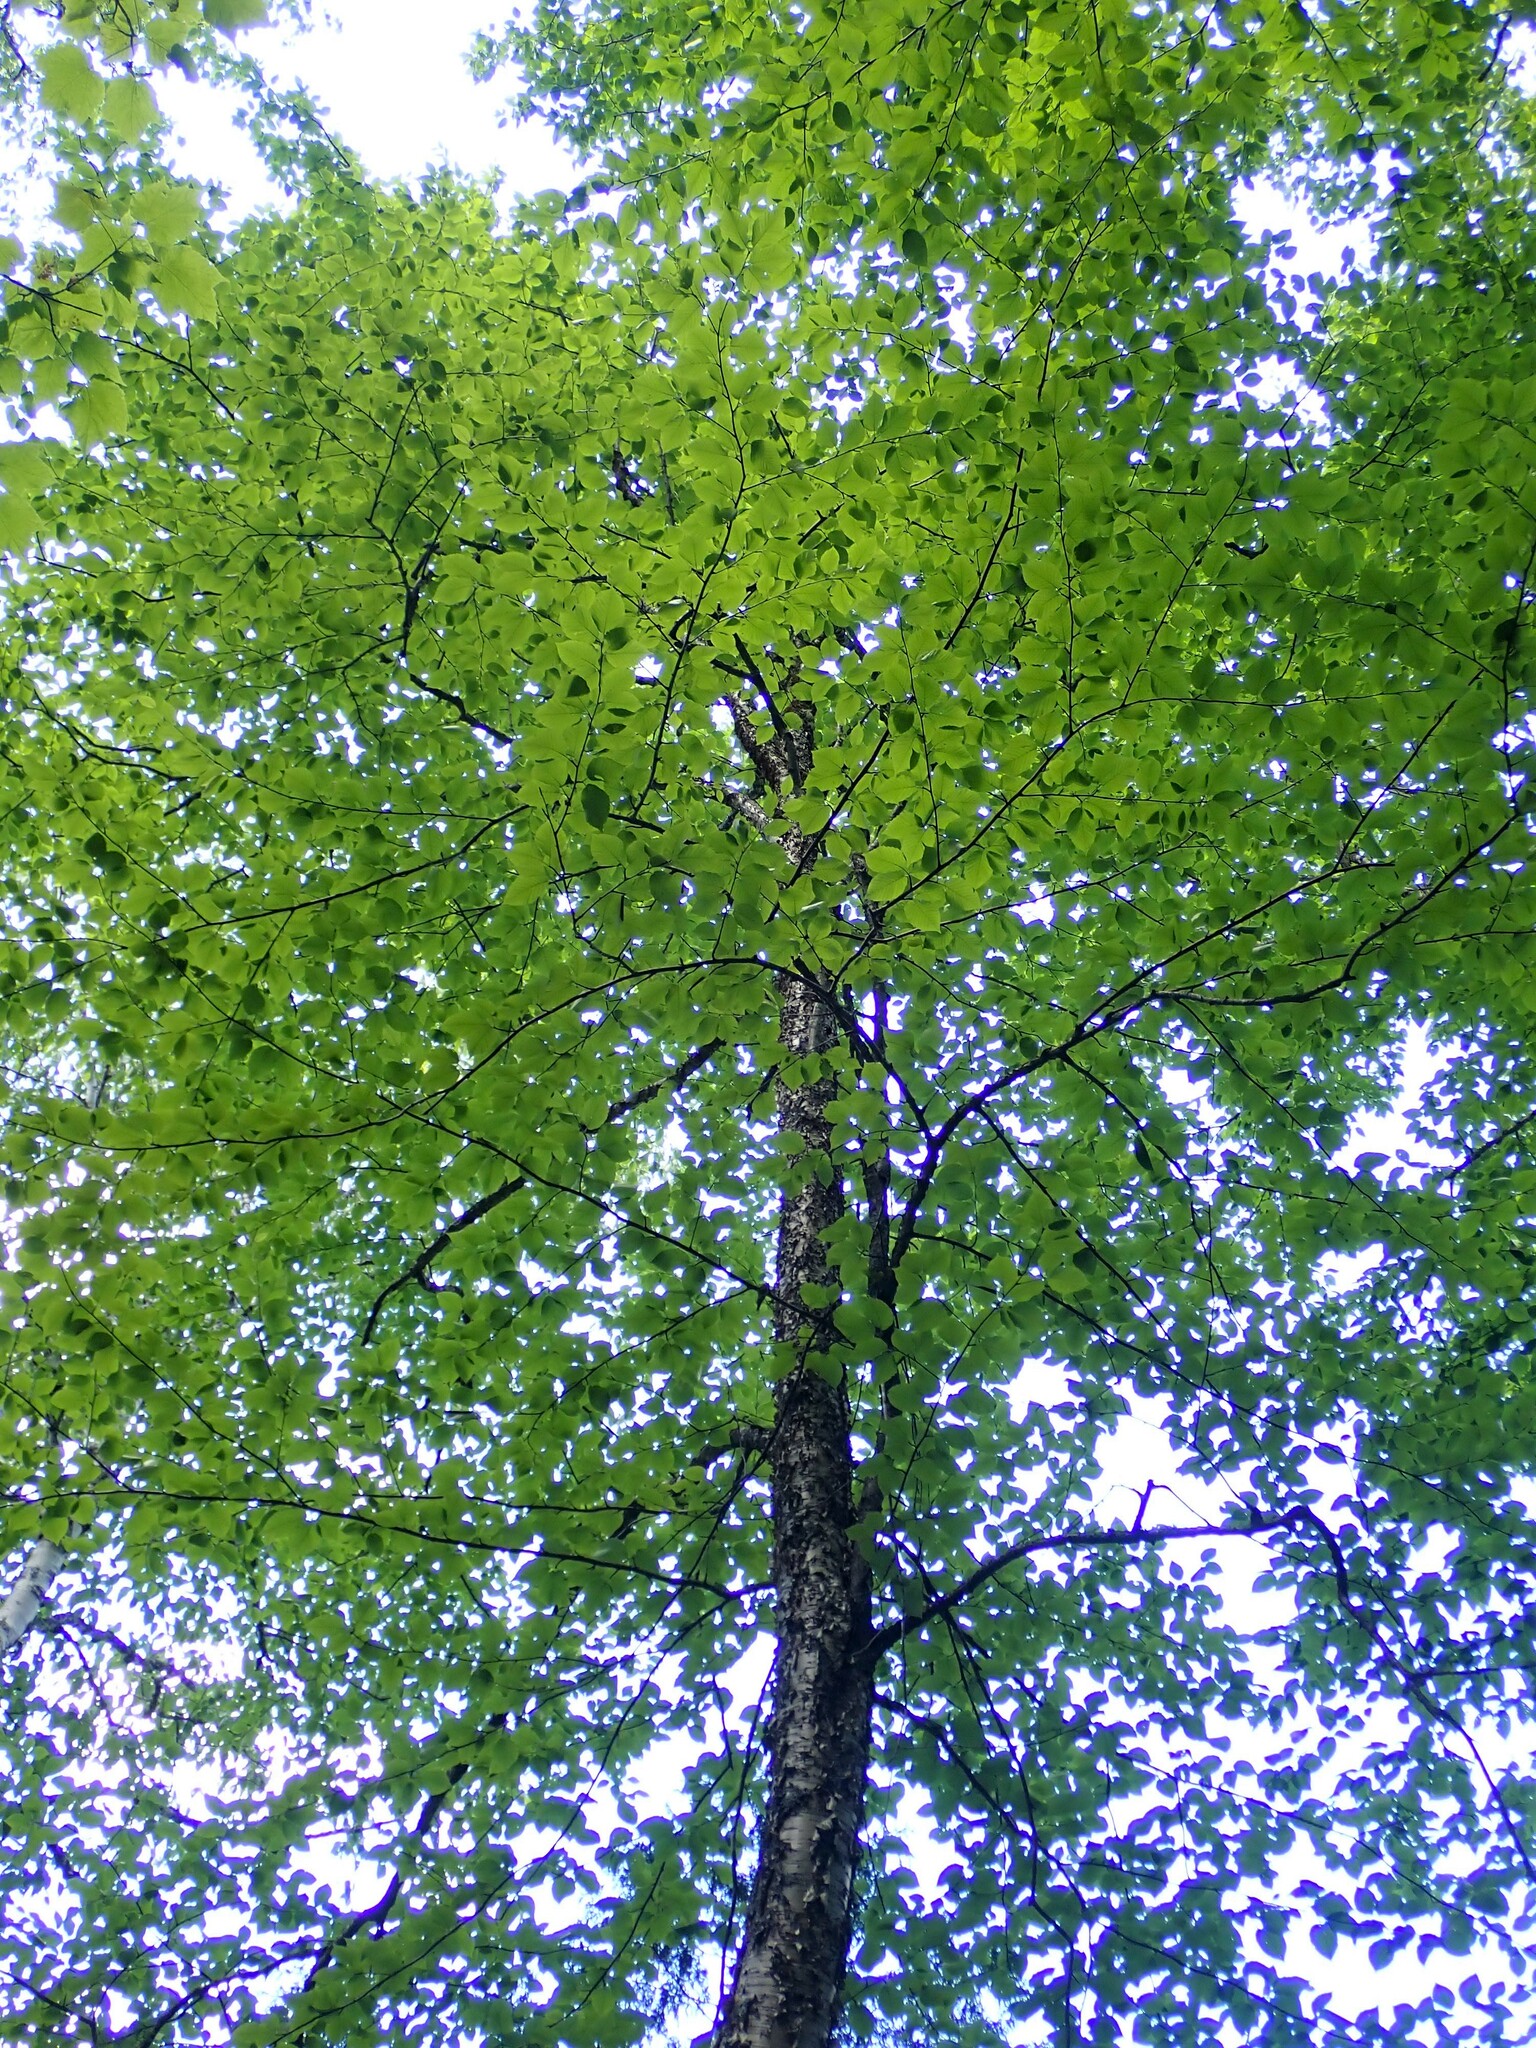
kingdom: Plantae
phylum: Tracheophyta
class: Magnoliopsida
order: Fagales
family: Betulaceae
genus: Betula
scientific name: Betula alleghaniensis
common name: Yellow birch
